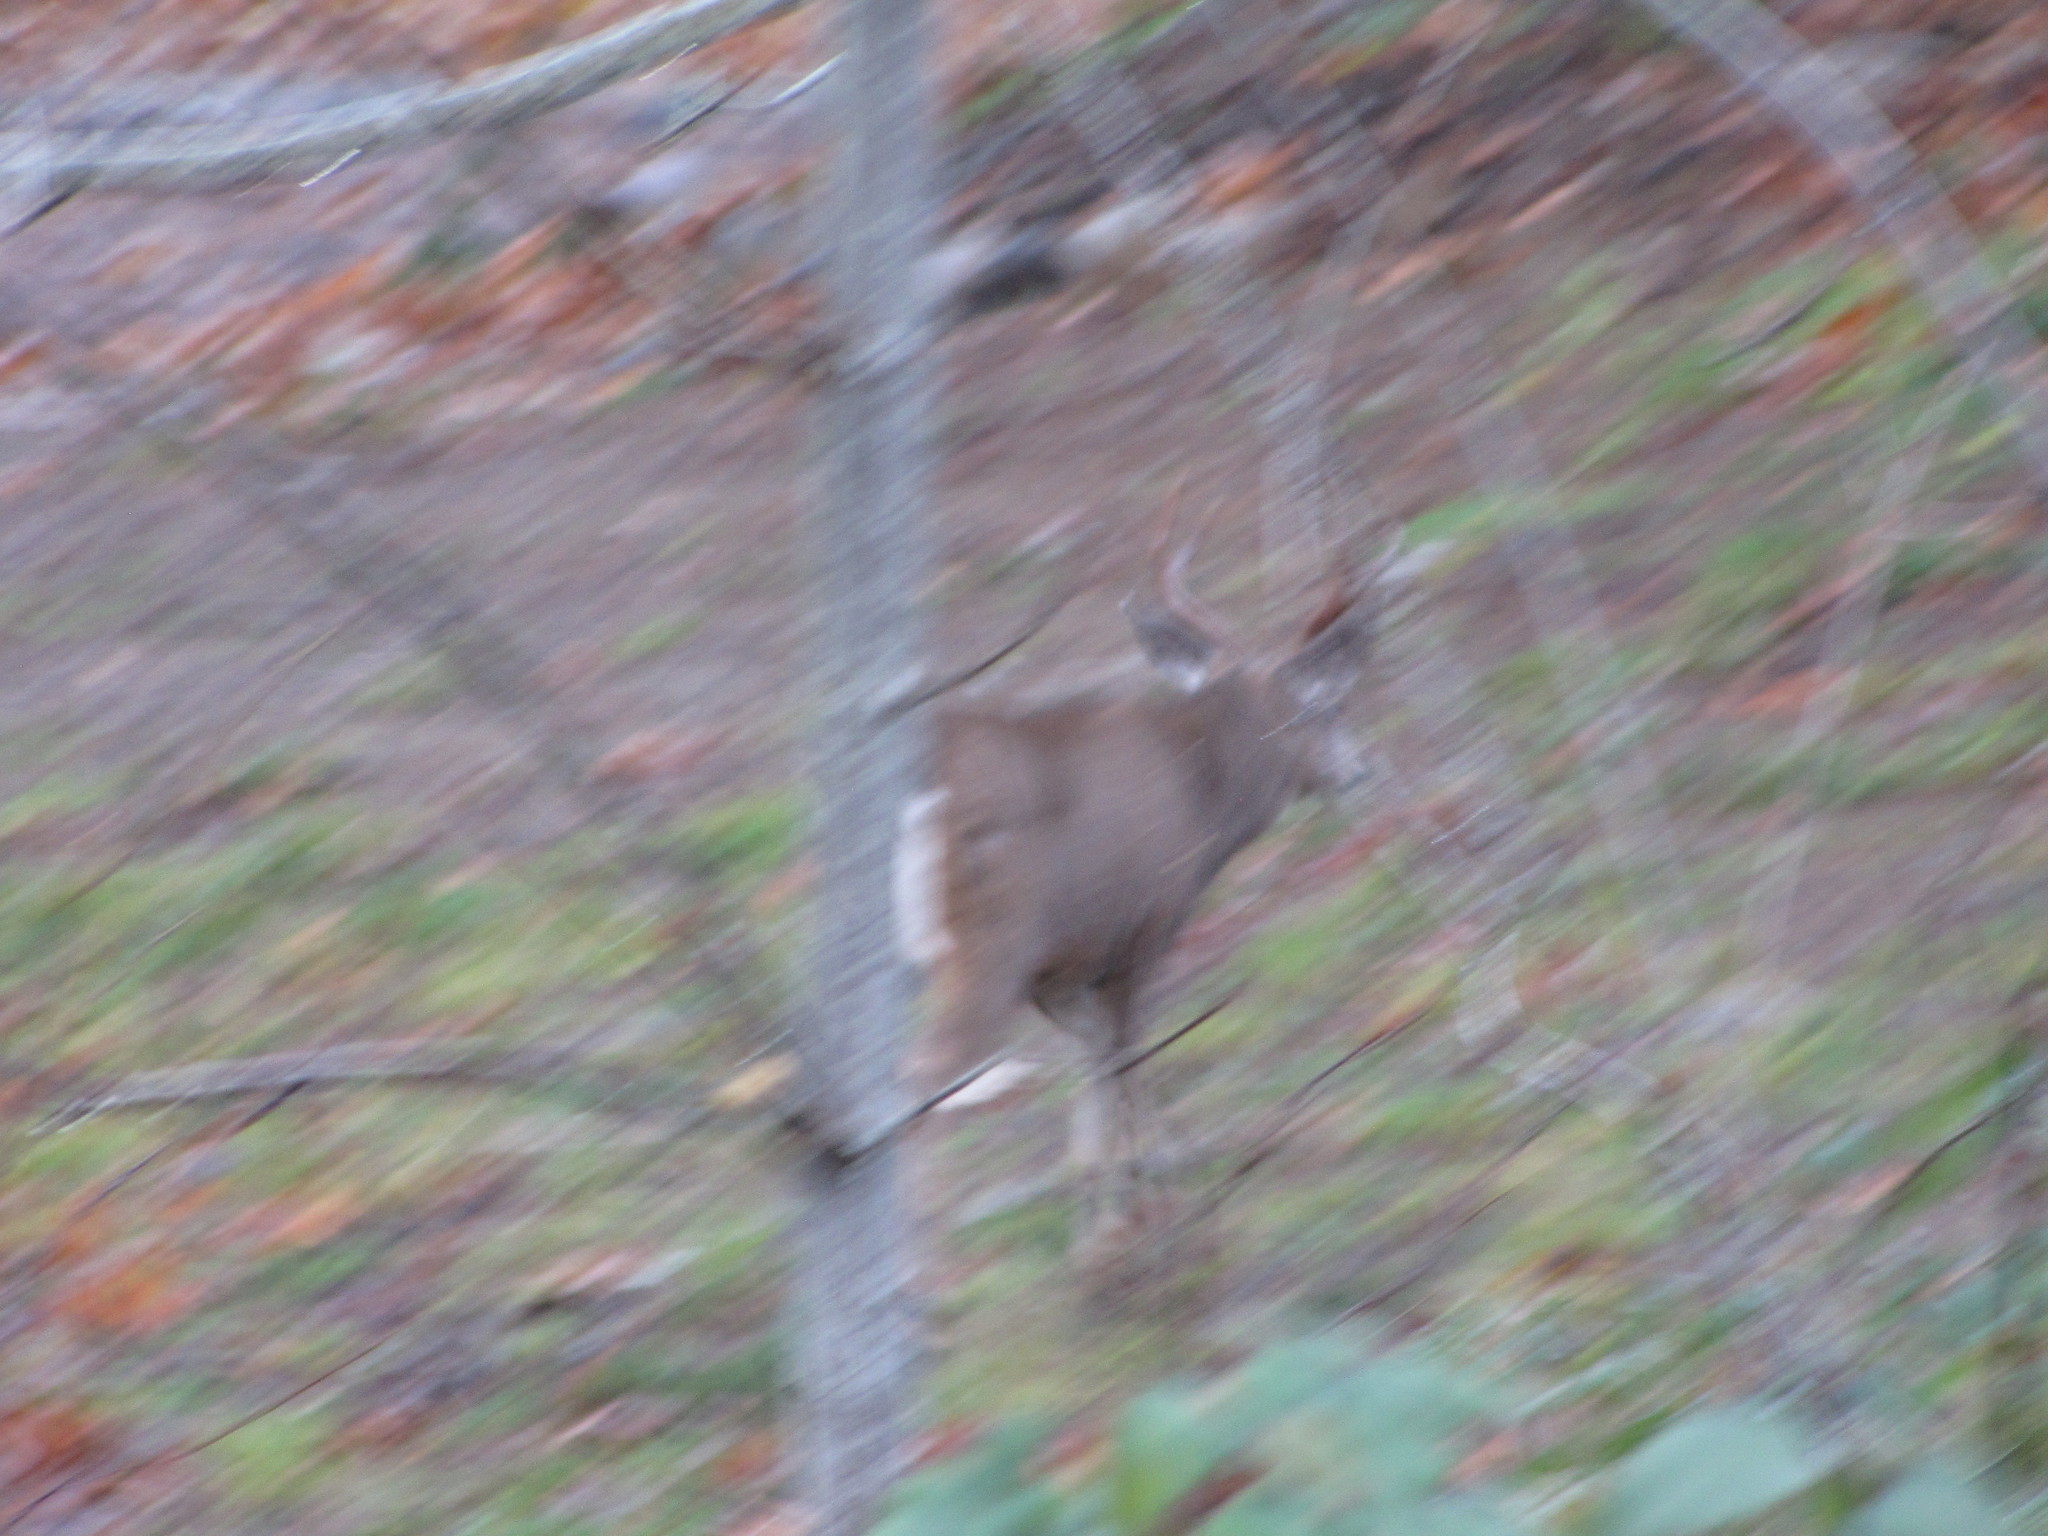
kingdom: Animalia
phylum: Chordata
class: Mammalia
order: Artiodactyla
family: Cervidae
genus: Odocoileus
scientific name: Odocoileus hemionus
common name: Mule deer
